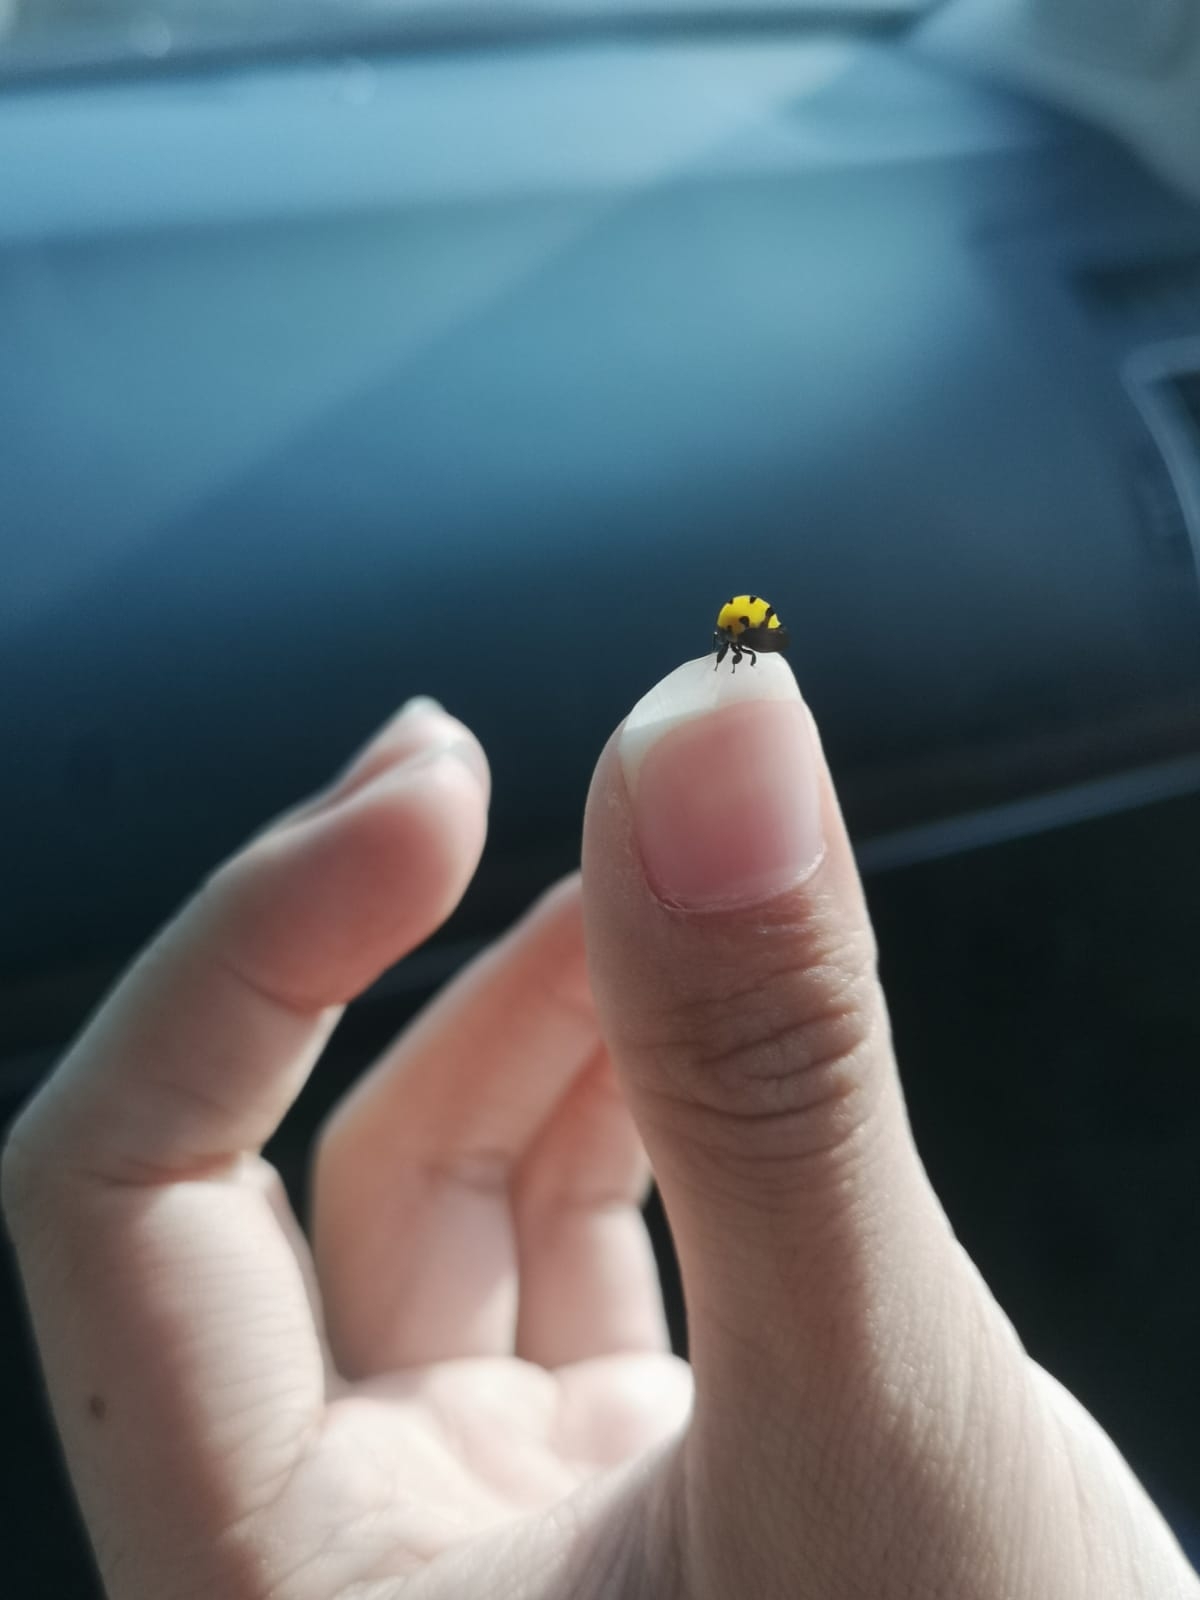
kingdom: Animalia
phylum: Arthropoda
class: Insecta
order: Hemiptera
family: Membracidae
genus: Membracis
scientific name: Membracis mexicana
